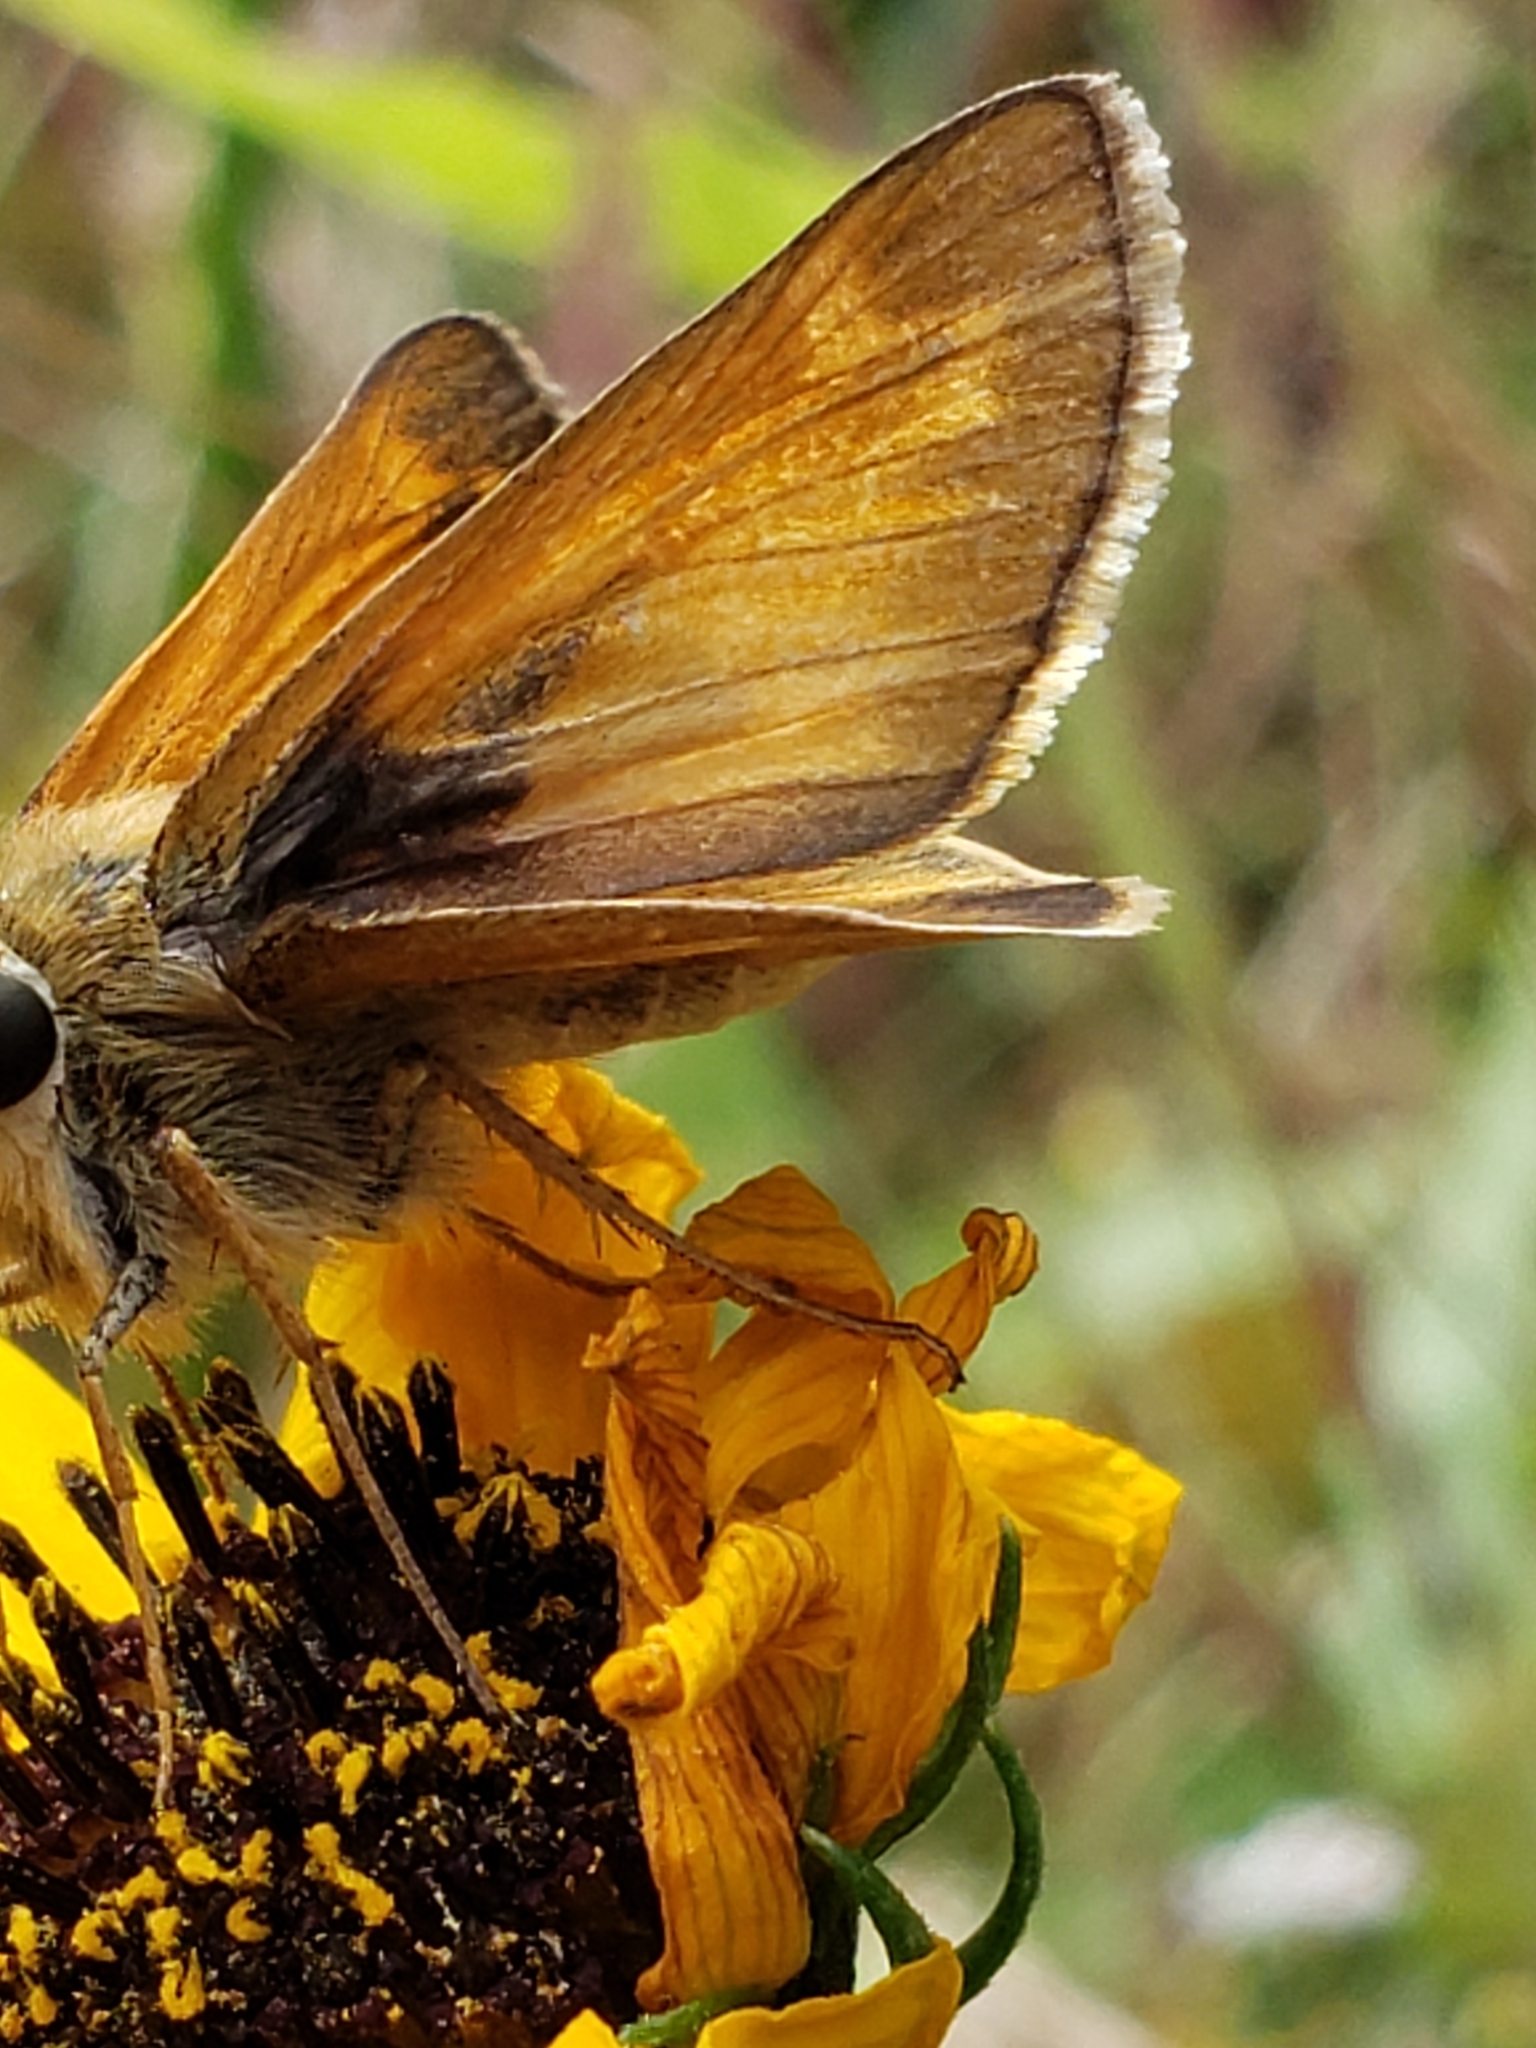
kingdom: Animalia
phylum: Arthropoda
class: Insecta
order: Lepidoptera
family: Hesperiidae
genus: Atalopedes
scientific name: Atalopedes
